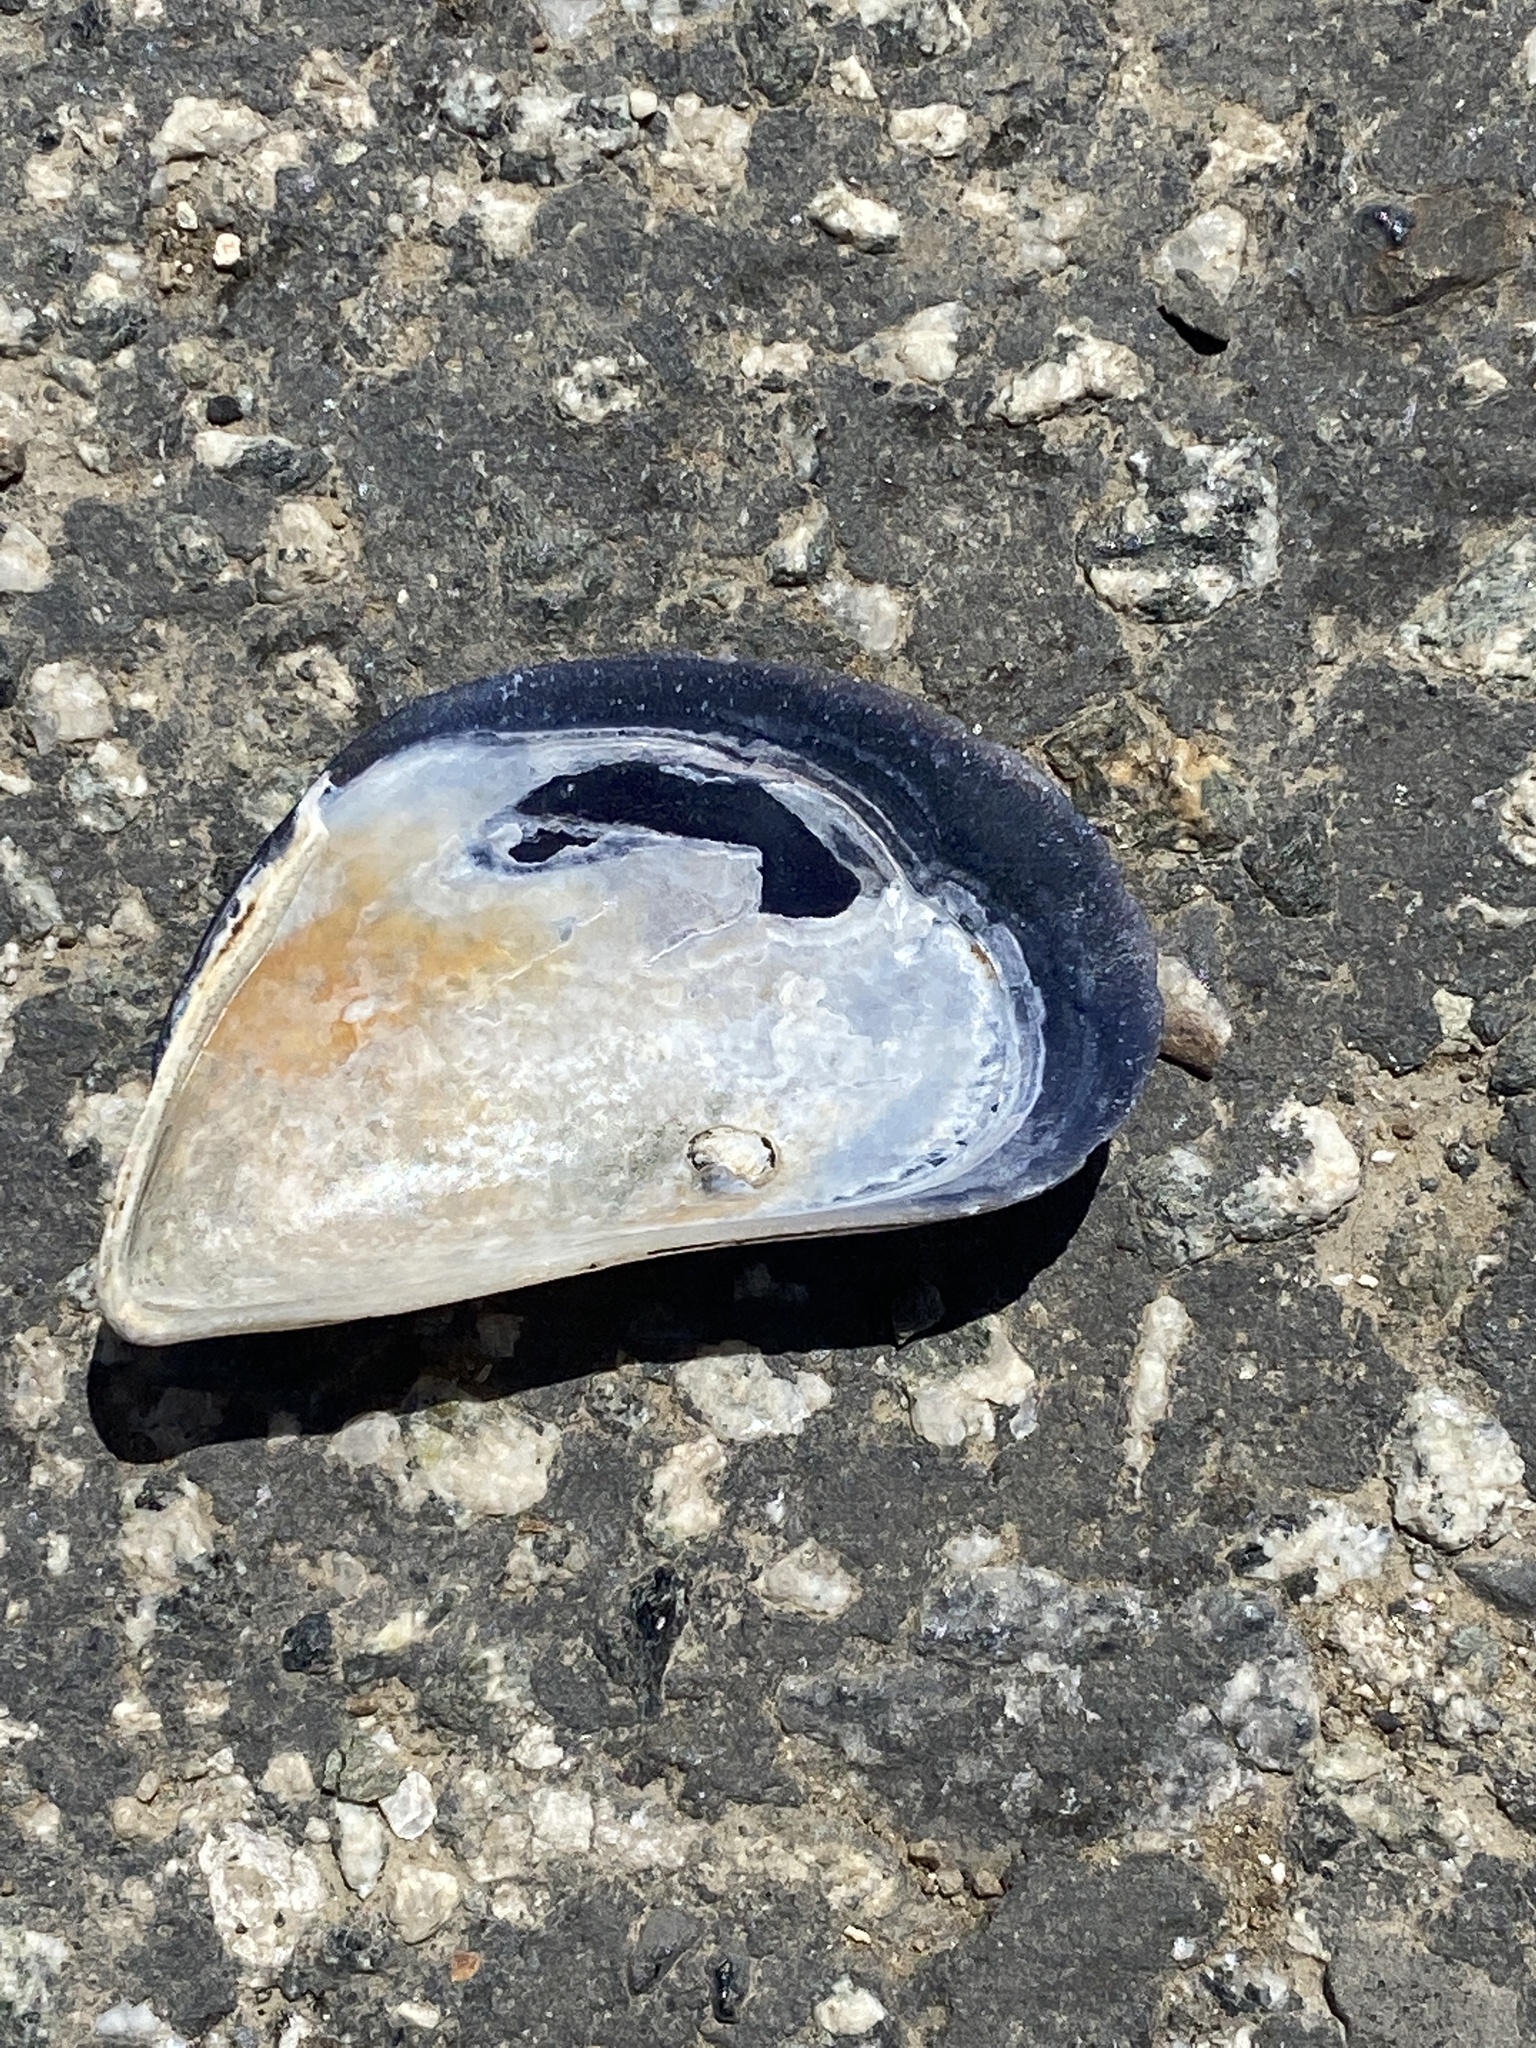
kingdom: Animalia
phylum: Mollusca
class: Bivalvia
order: Mytilida
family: Mytilidae
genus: Mytilus
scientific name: Mytilus
